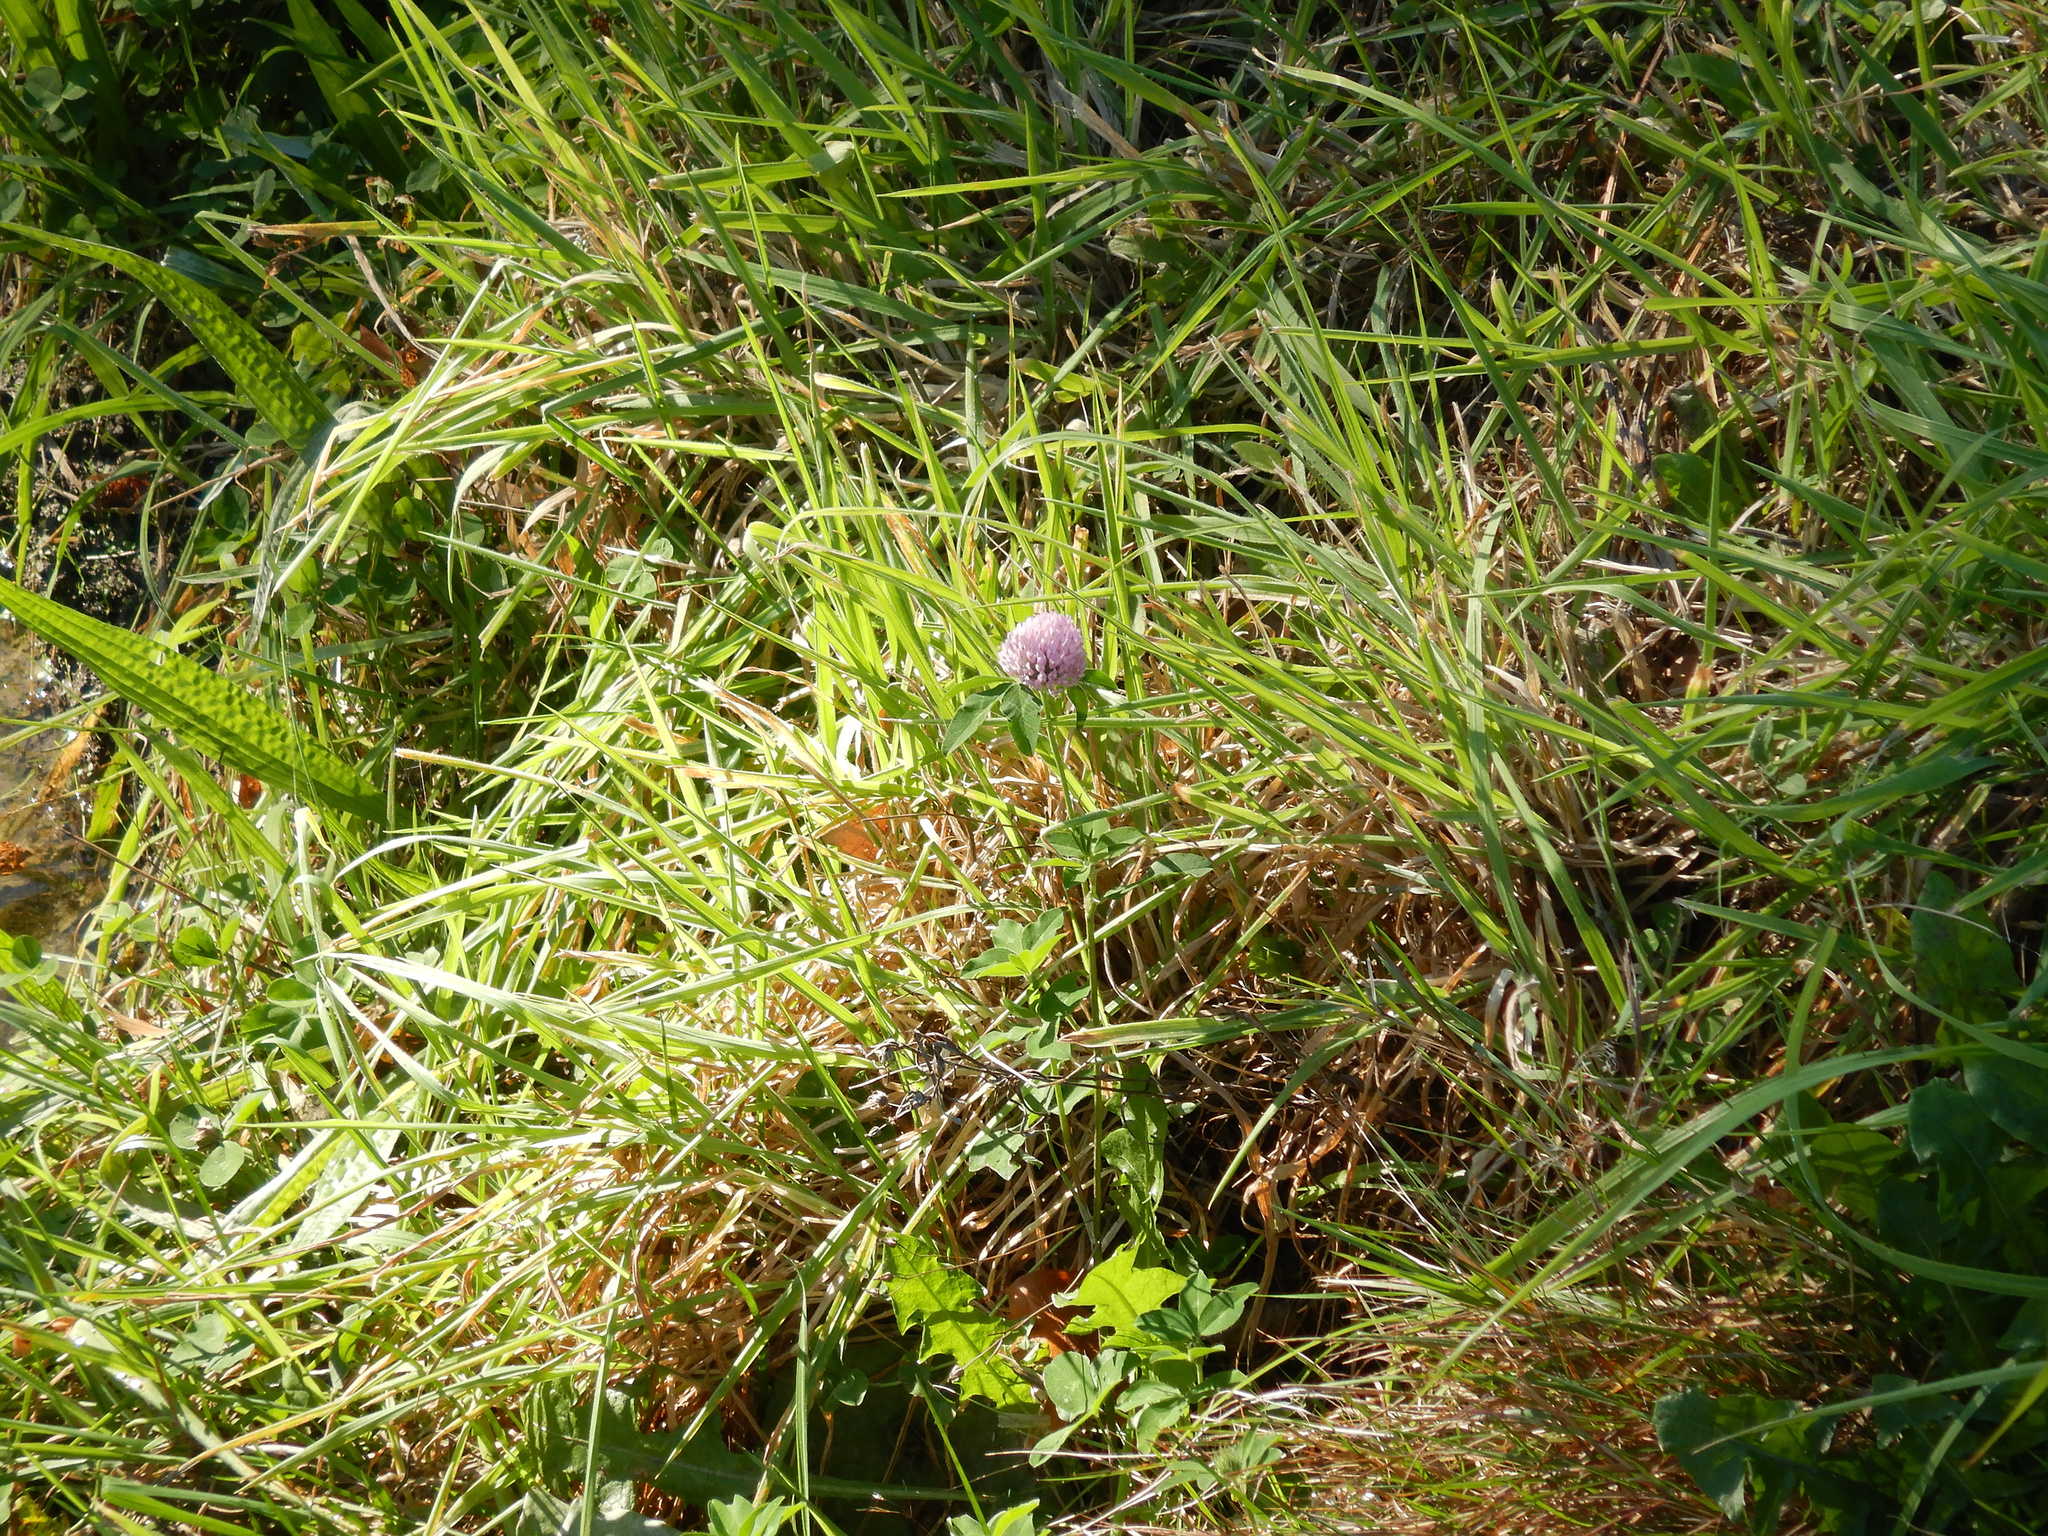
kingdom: Plantae
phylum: Tracheophyta
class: Magnoliopsida
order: Fabales
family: Fabaceae
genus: Trifolium
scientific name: Trifolium pratense
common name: Red clover
